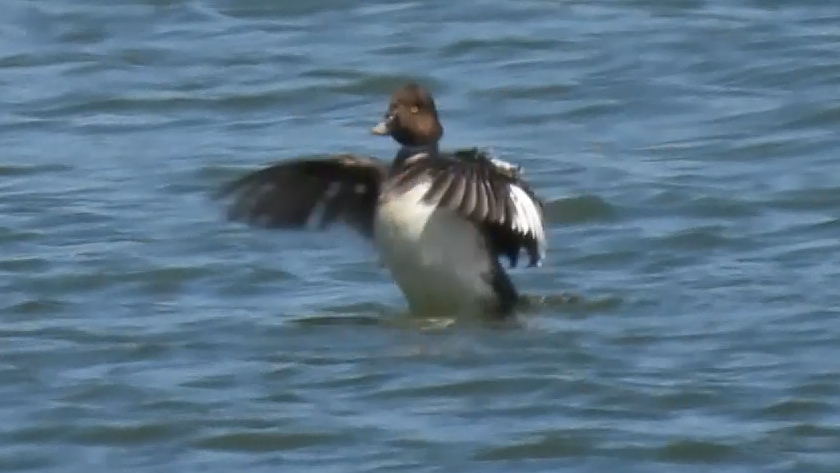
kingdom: Animalia
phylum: Chordata
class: Aves
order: Anseriformes
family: Anatidae
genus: Bucephala
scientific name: Bucephala clangula
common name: Common goldeneye
